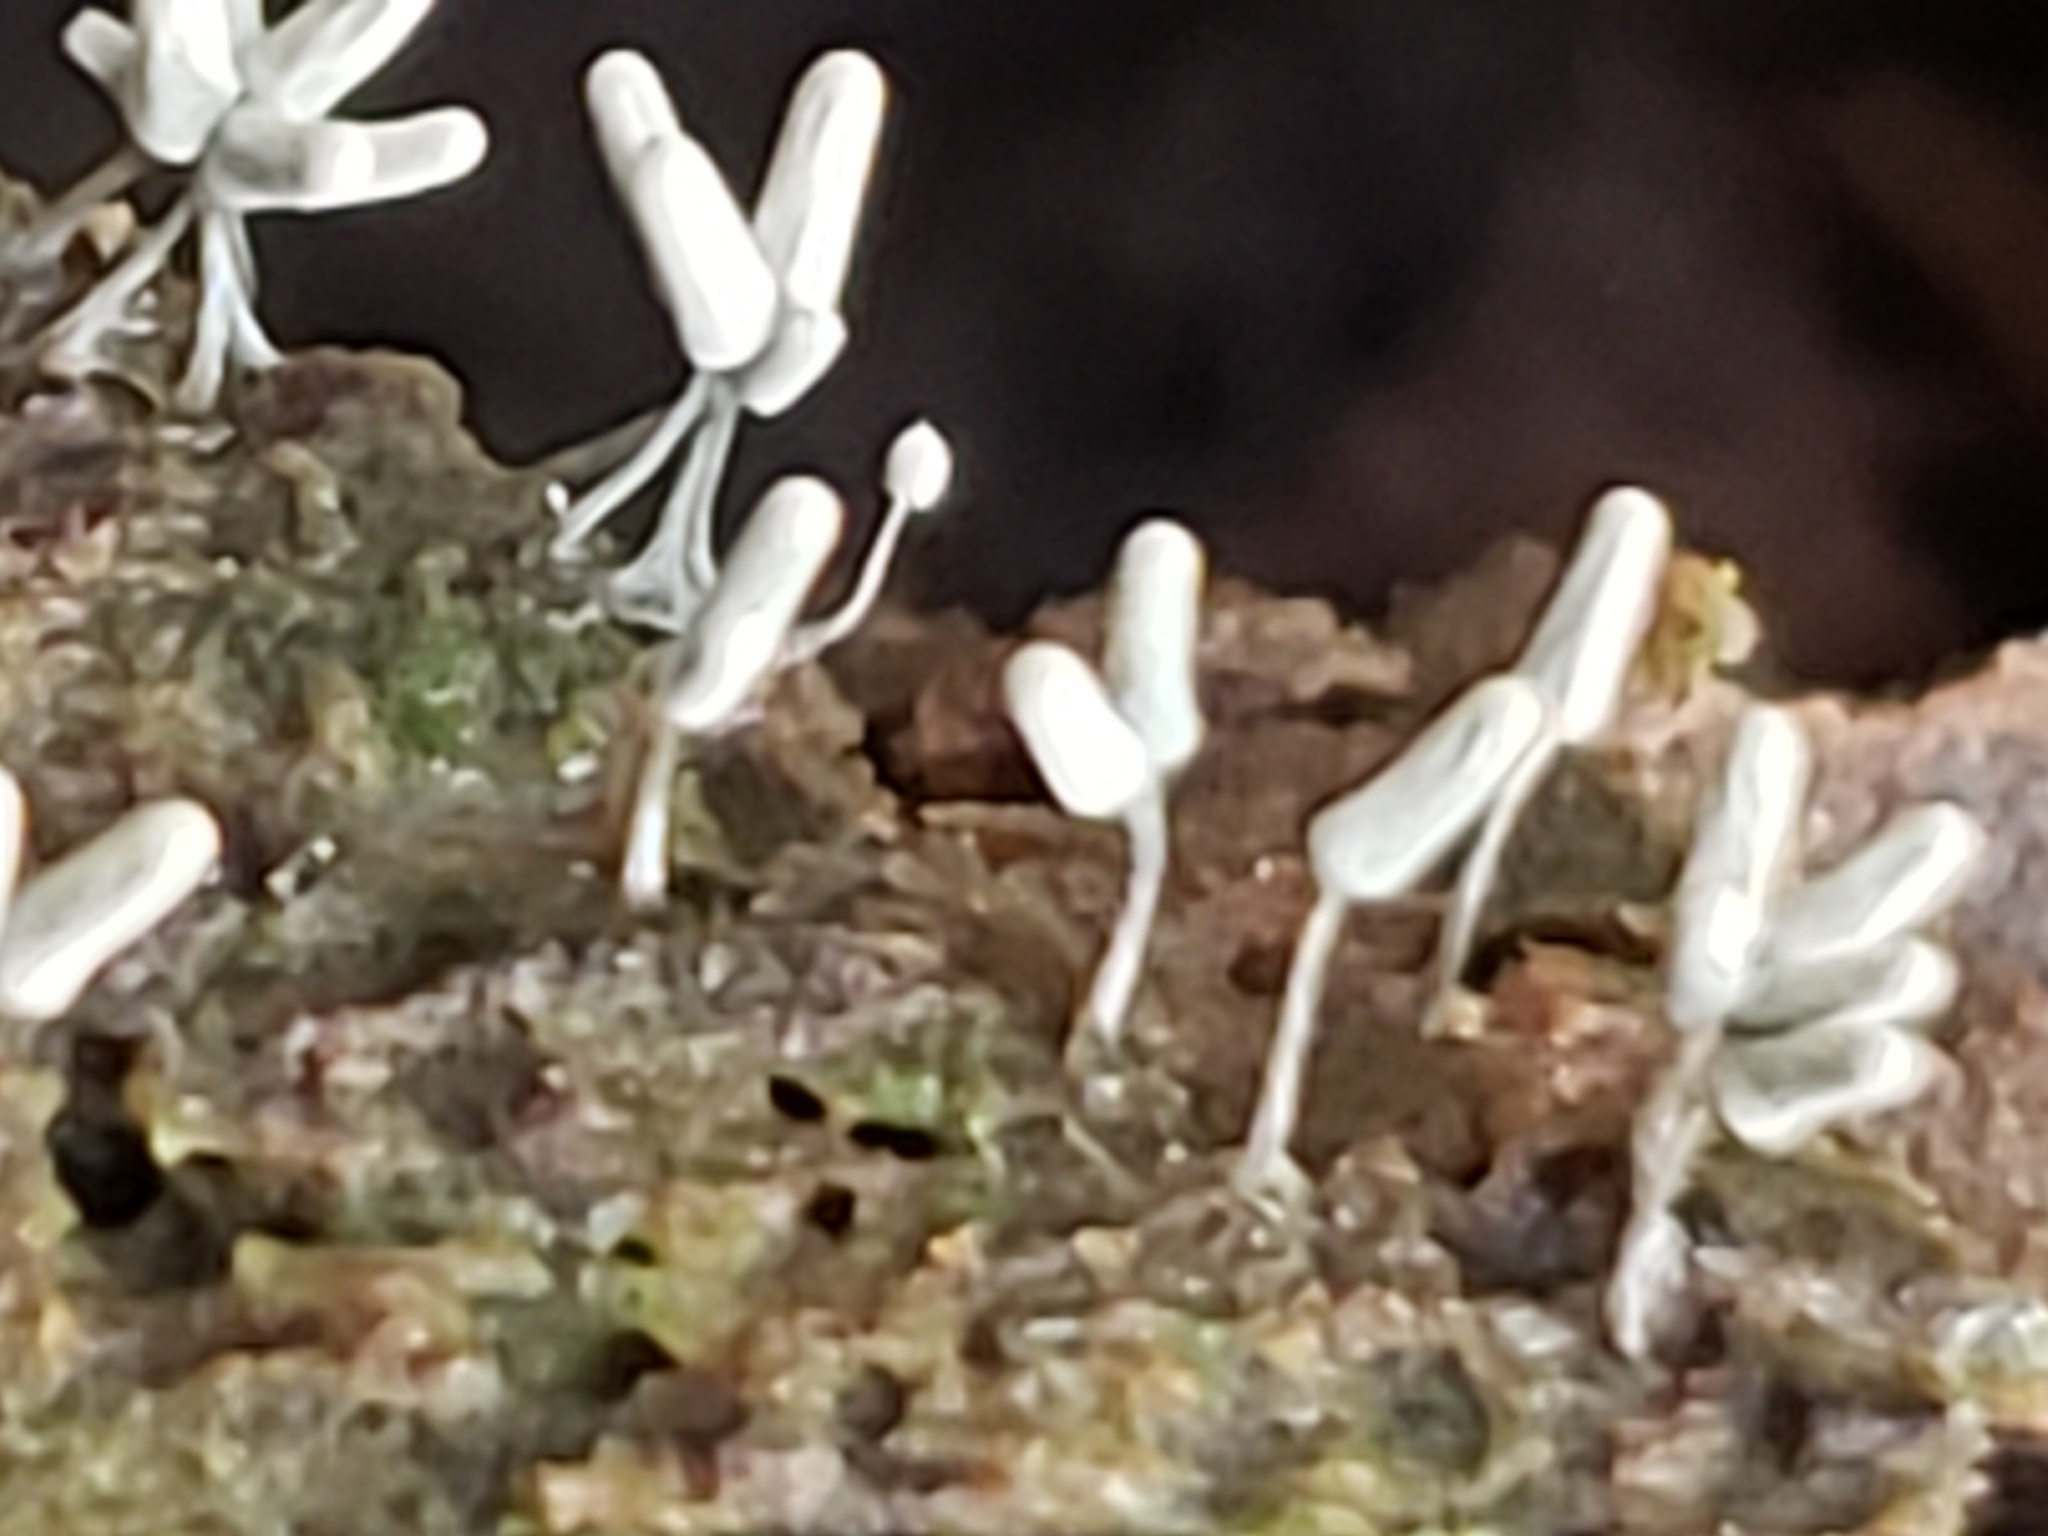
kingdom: Protozoa
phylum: Mycetozoa
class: Myxomycetes
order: Trichiales
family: Arcyriaceae
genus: Arcyria
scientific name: Arcyria cinerea
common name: White carnival candy slime mold
